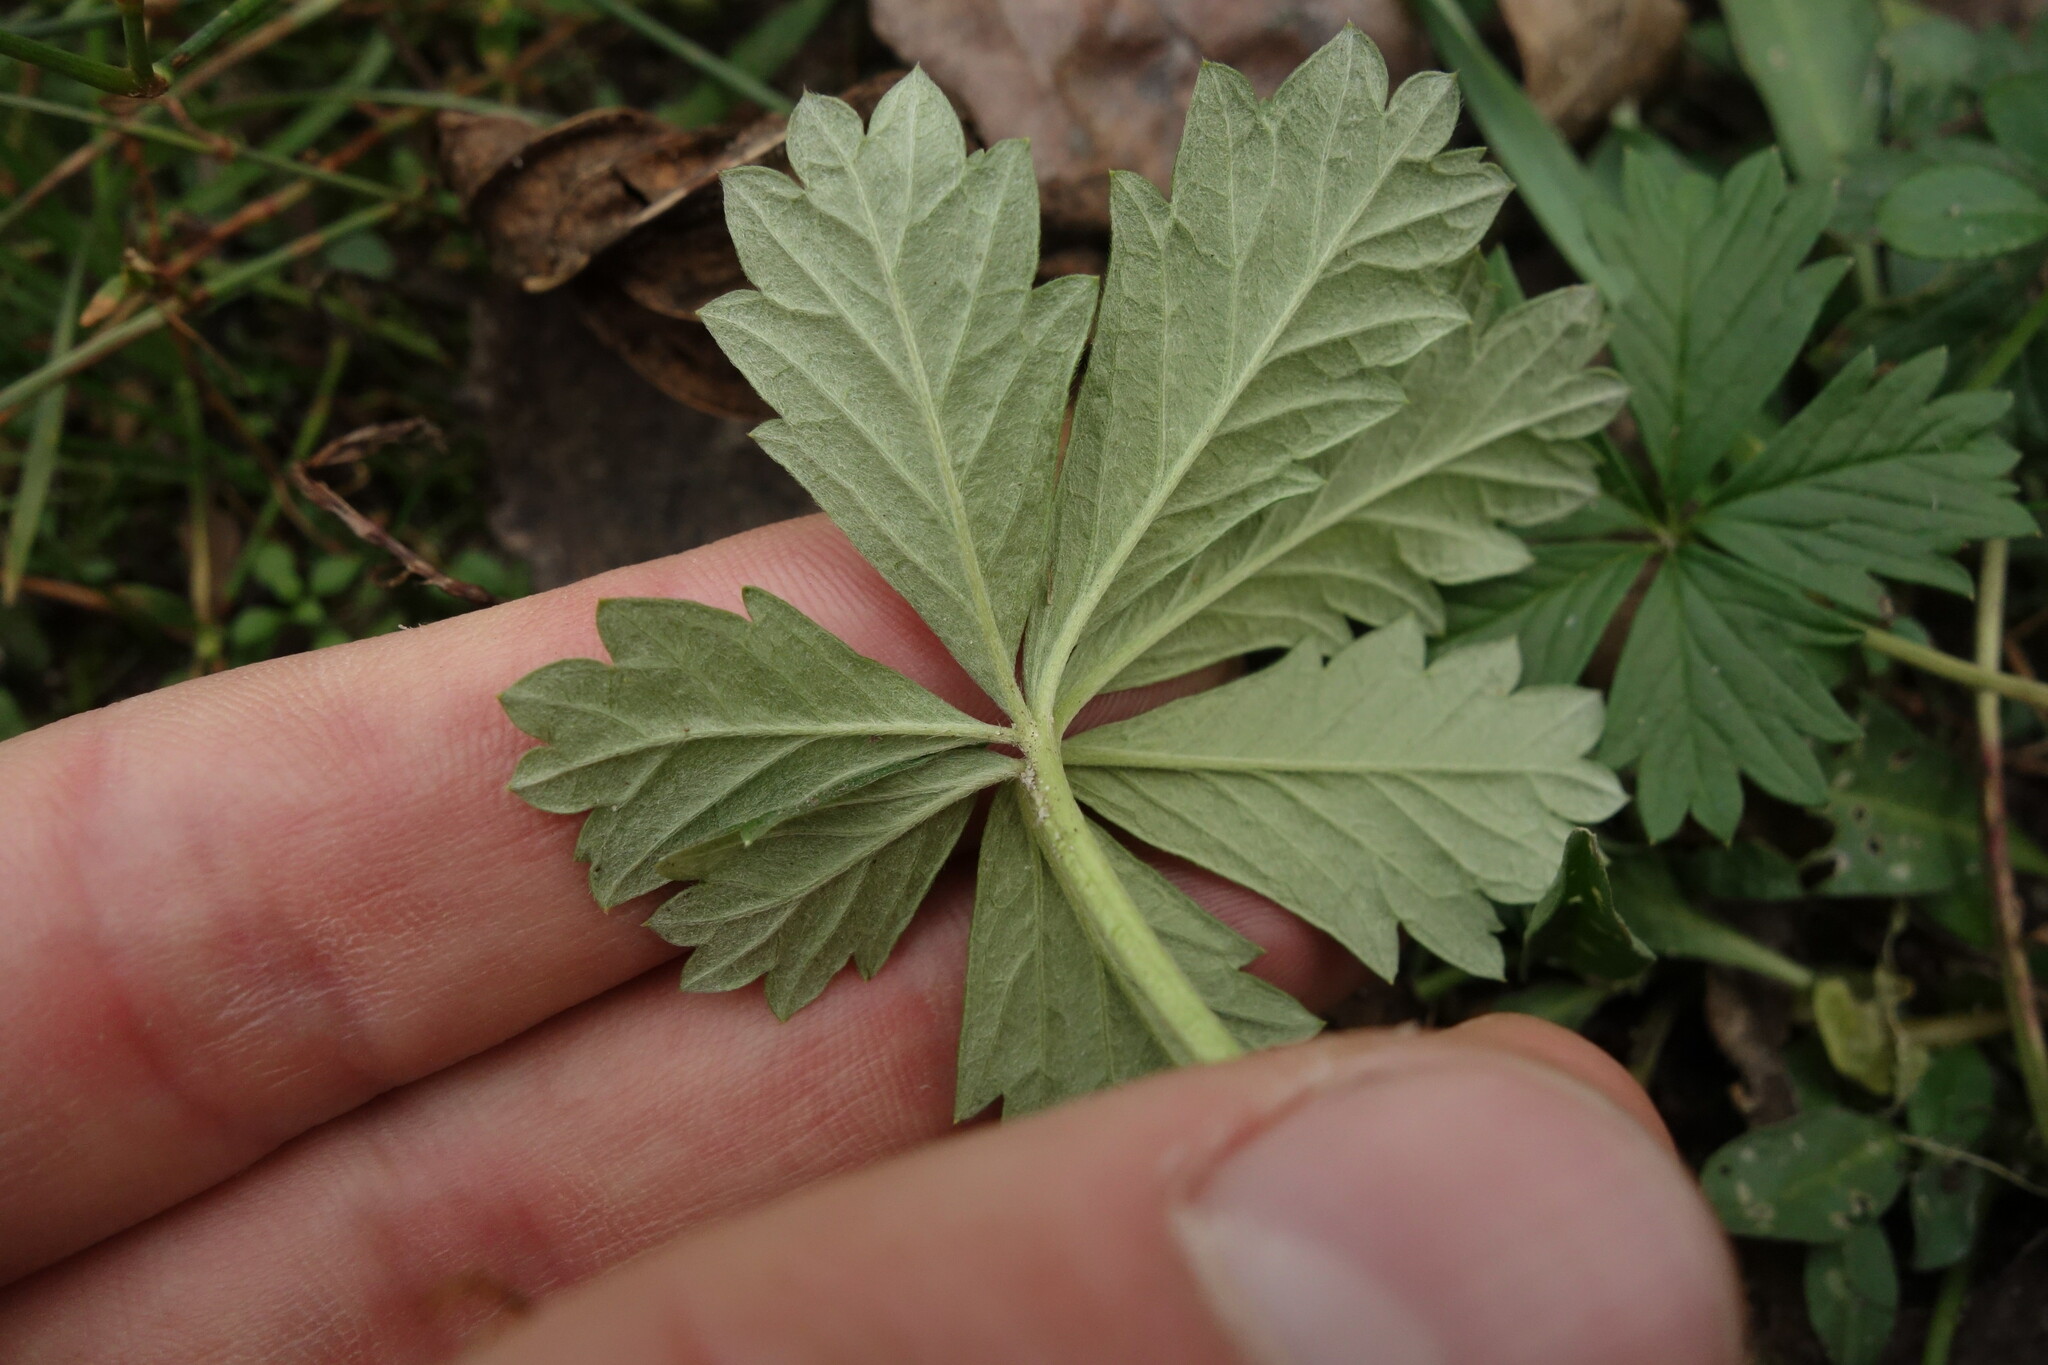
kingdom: Plantae
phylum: Tracheophyta
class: Magnoliopsida
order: Rosales
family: Rosaceae
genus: Potentilla
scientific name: Potentilla intermedia
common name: Downy cinquefoil
